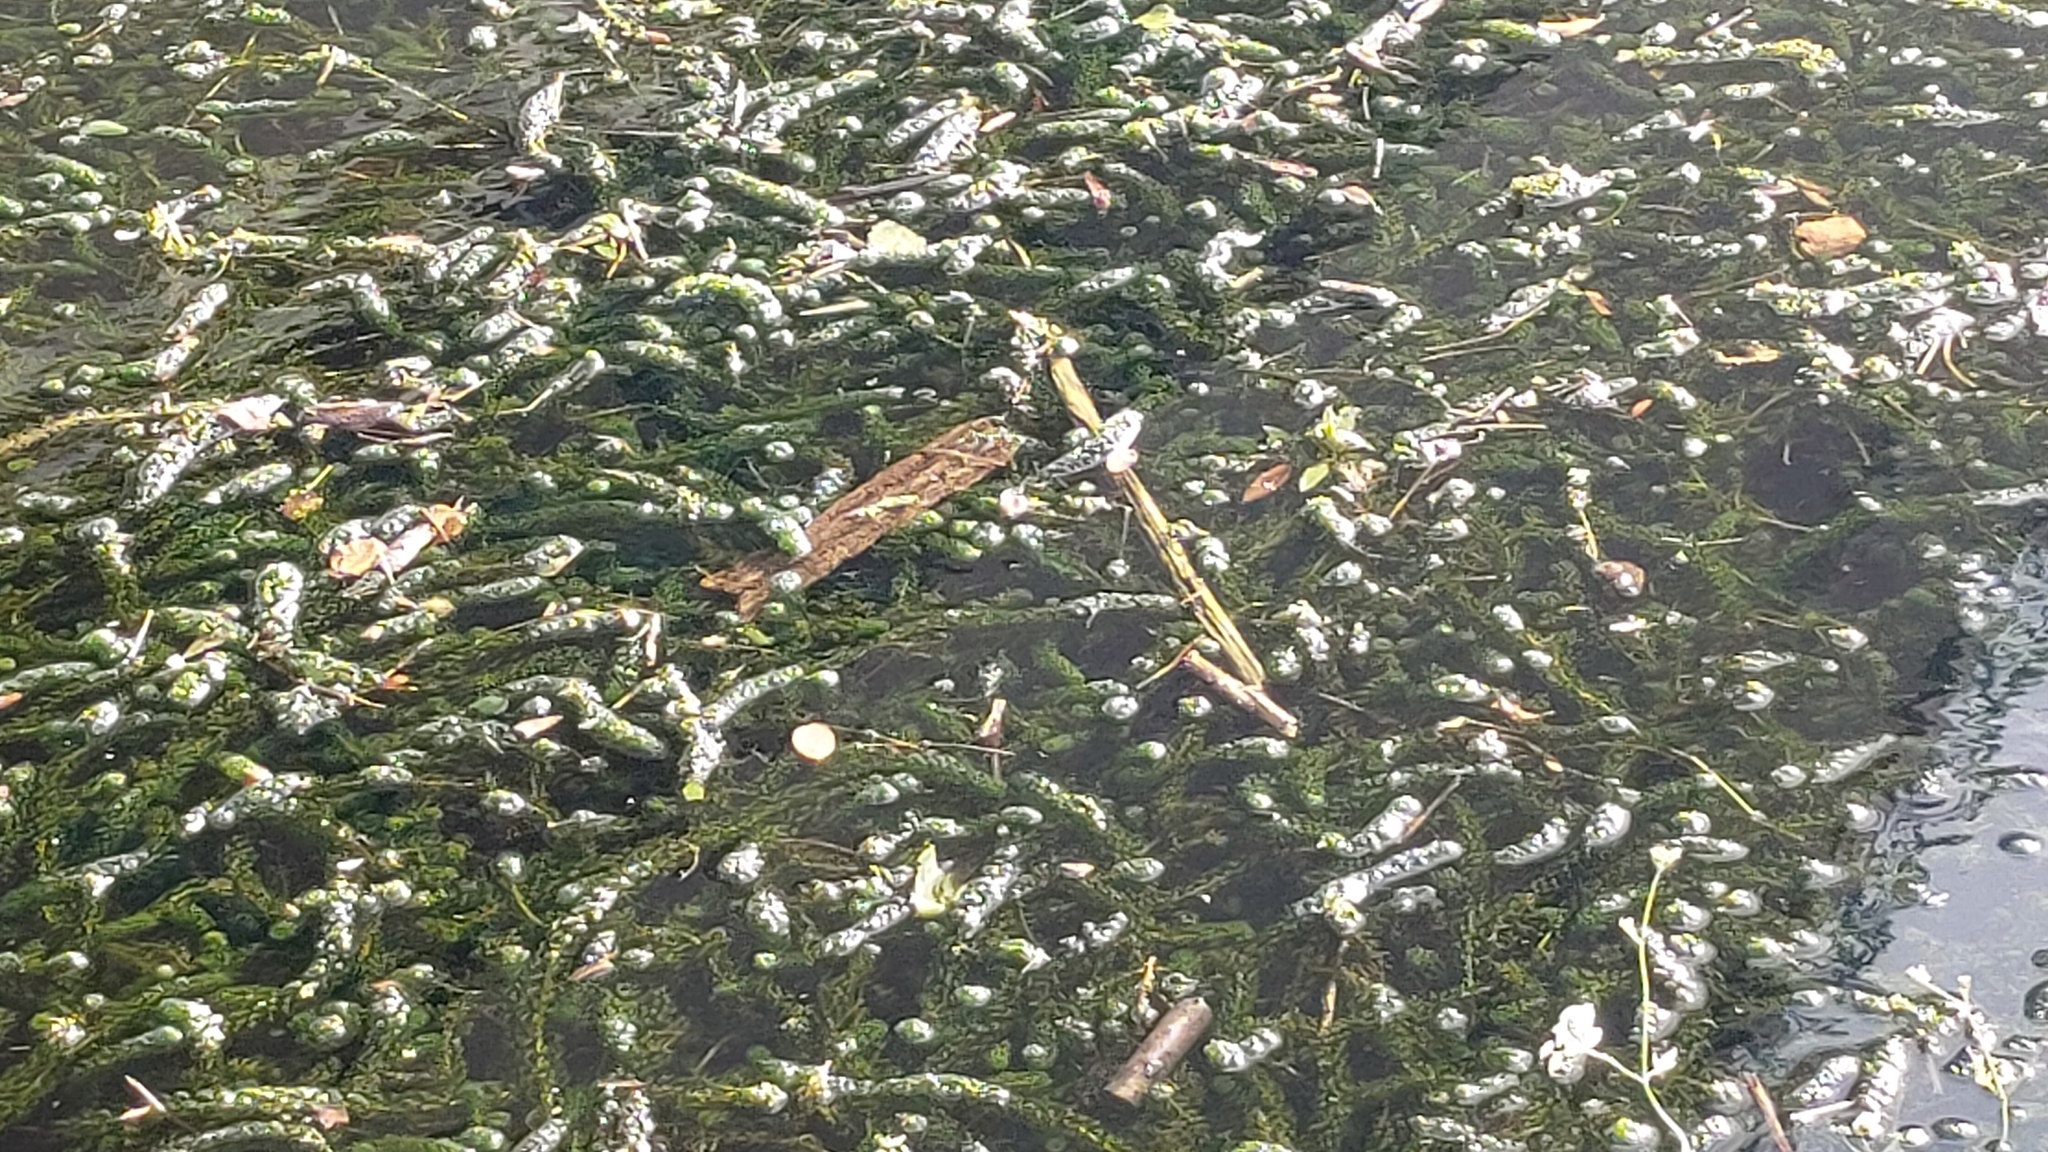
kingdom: Plantae
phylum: Tracheophyta
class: Liliopsida
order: Alismatales
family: Hydrocharitaceae
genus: Lagarosiphon
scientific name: Lagarosiphon major
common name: Curly waterweed
